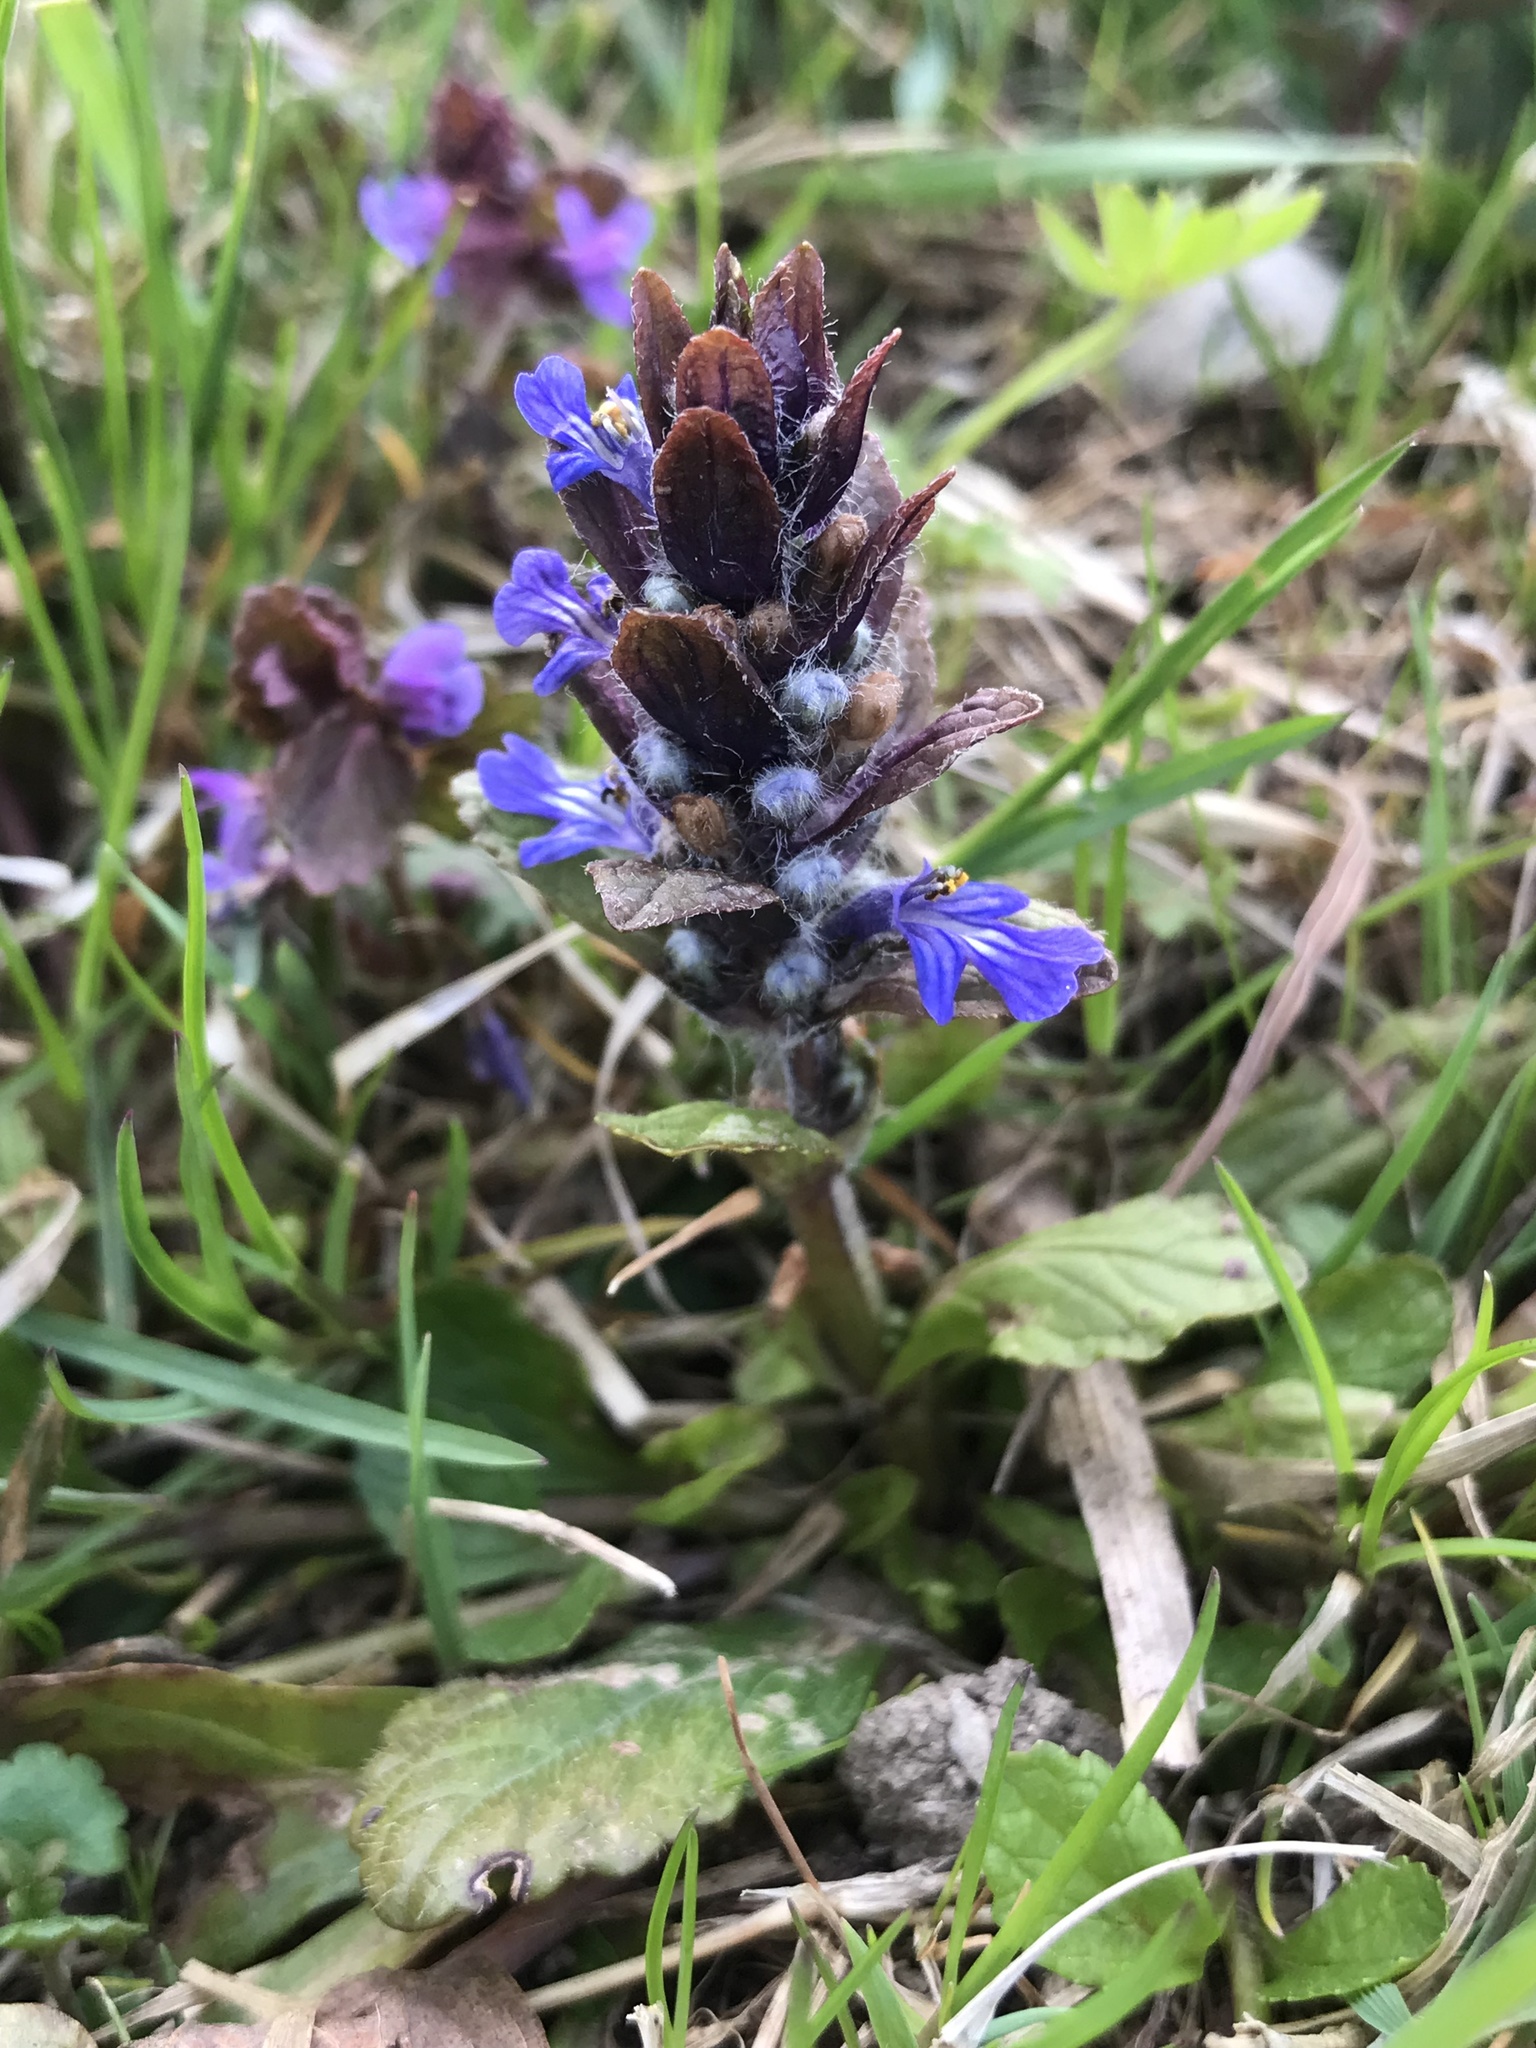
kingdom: Plantae
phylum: Tracheophyta
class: Magnoliopsida
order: Lamiales
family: Lamiaceae
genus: Ajuga
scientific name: Ajuga reptans
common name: Bugle
